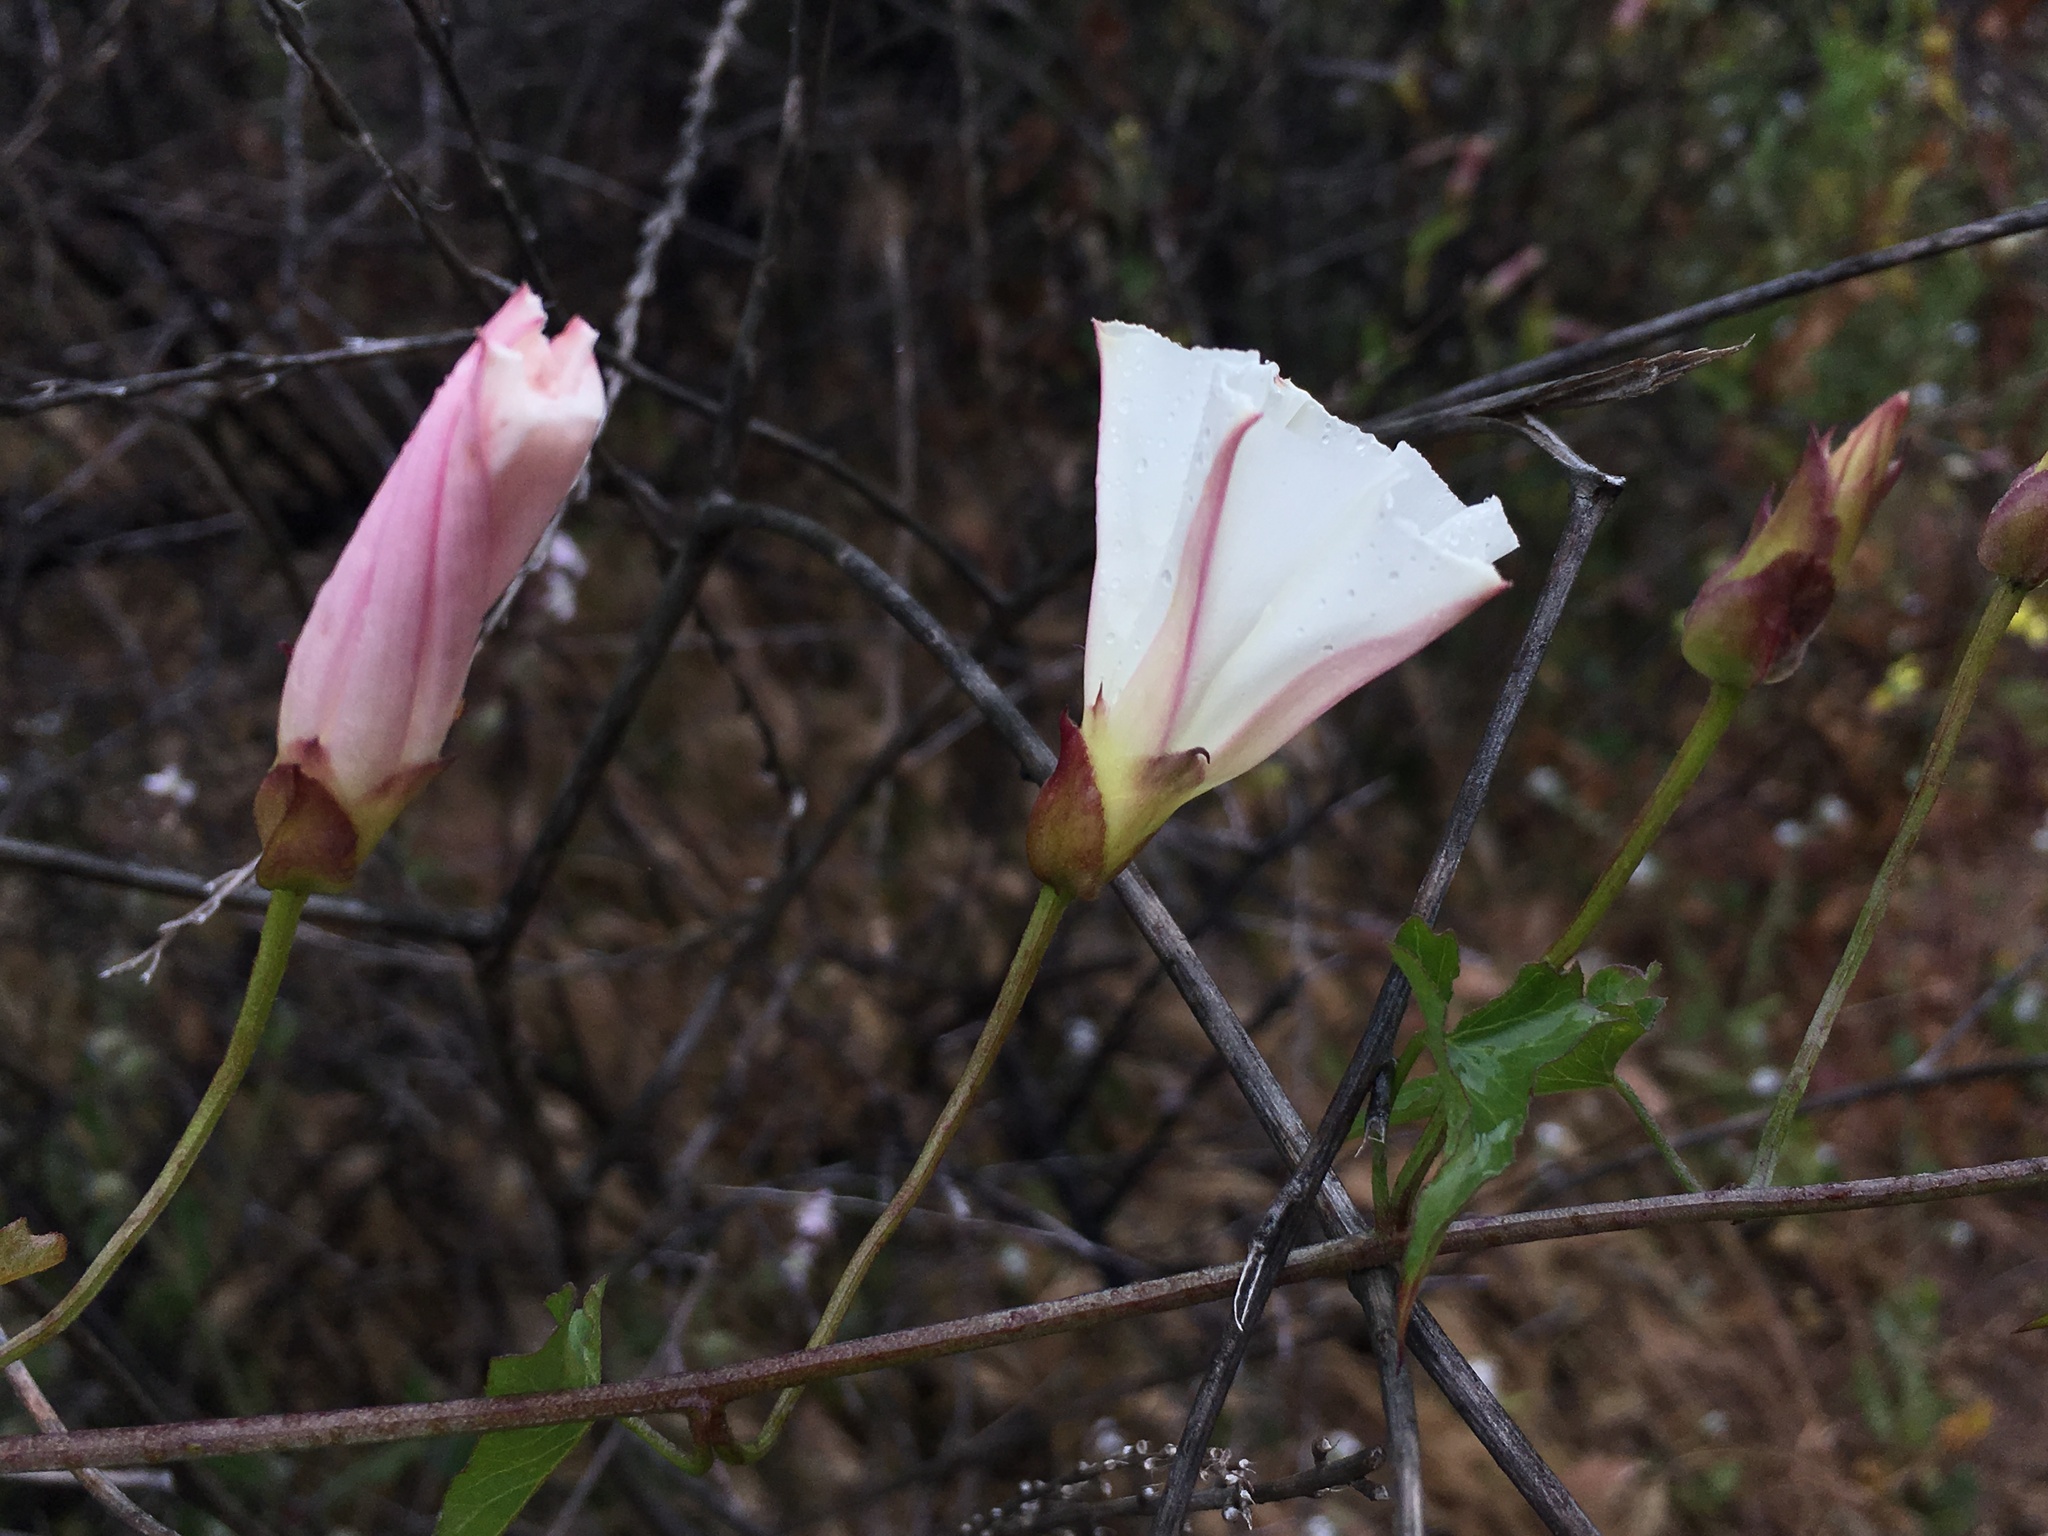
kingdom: Plantae
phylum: Tracheophyta
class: Magnoliopsida
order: Solanales
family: Convolvulaceae
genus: Calystegia
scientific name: Calystegia macrostegia
